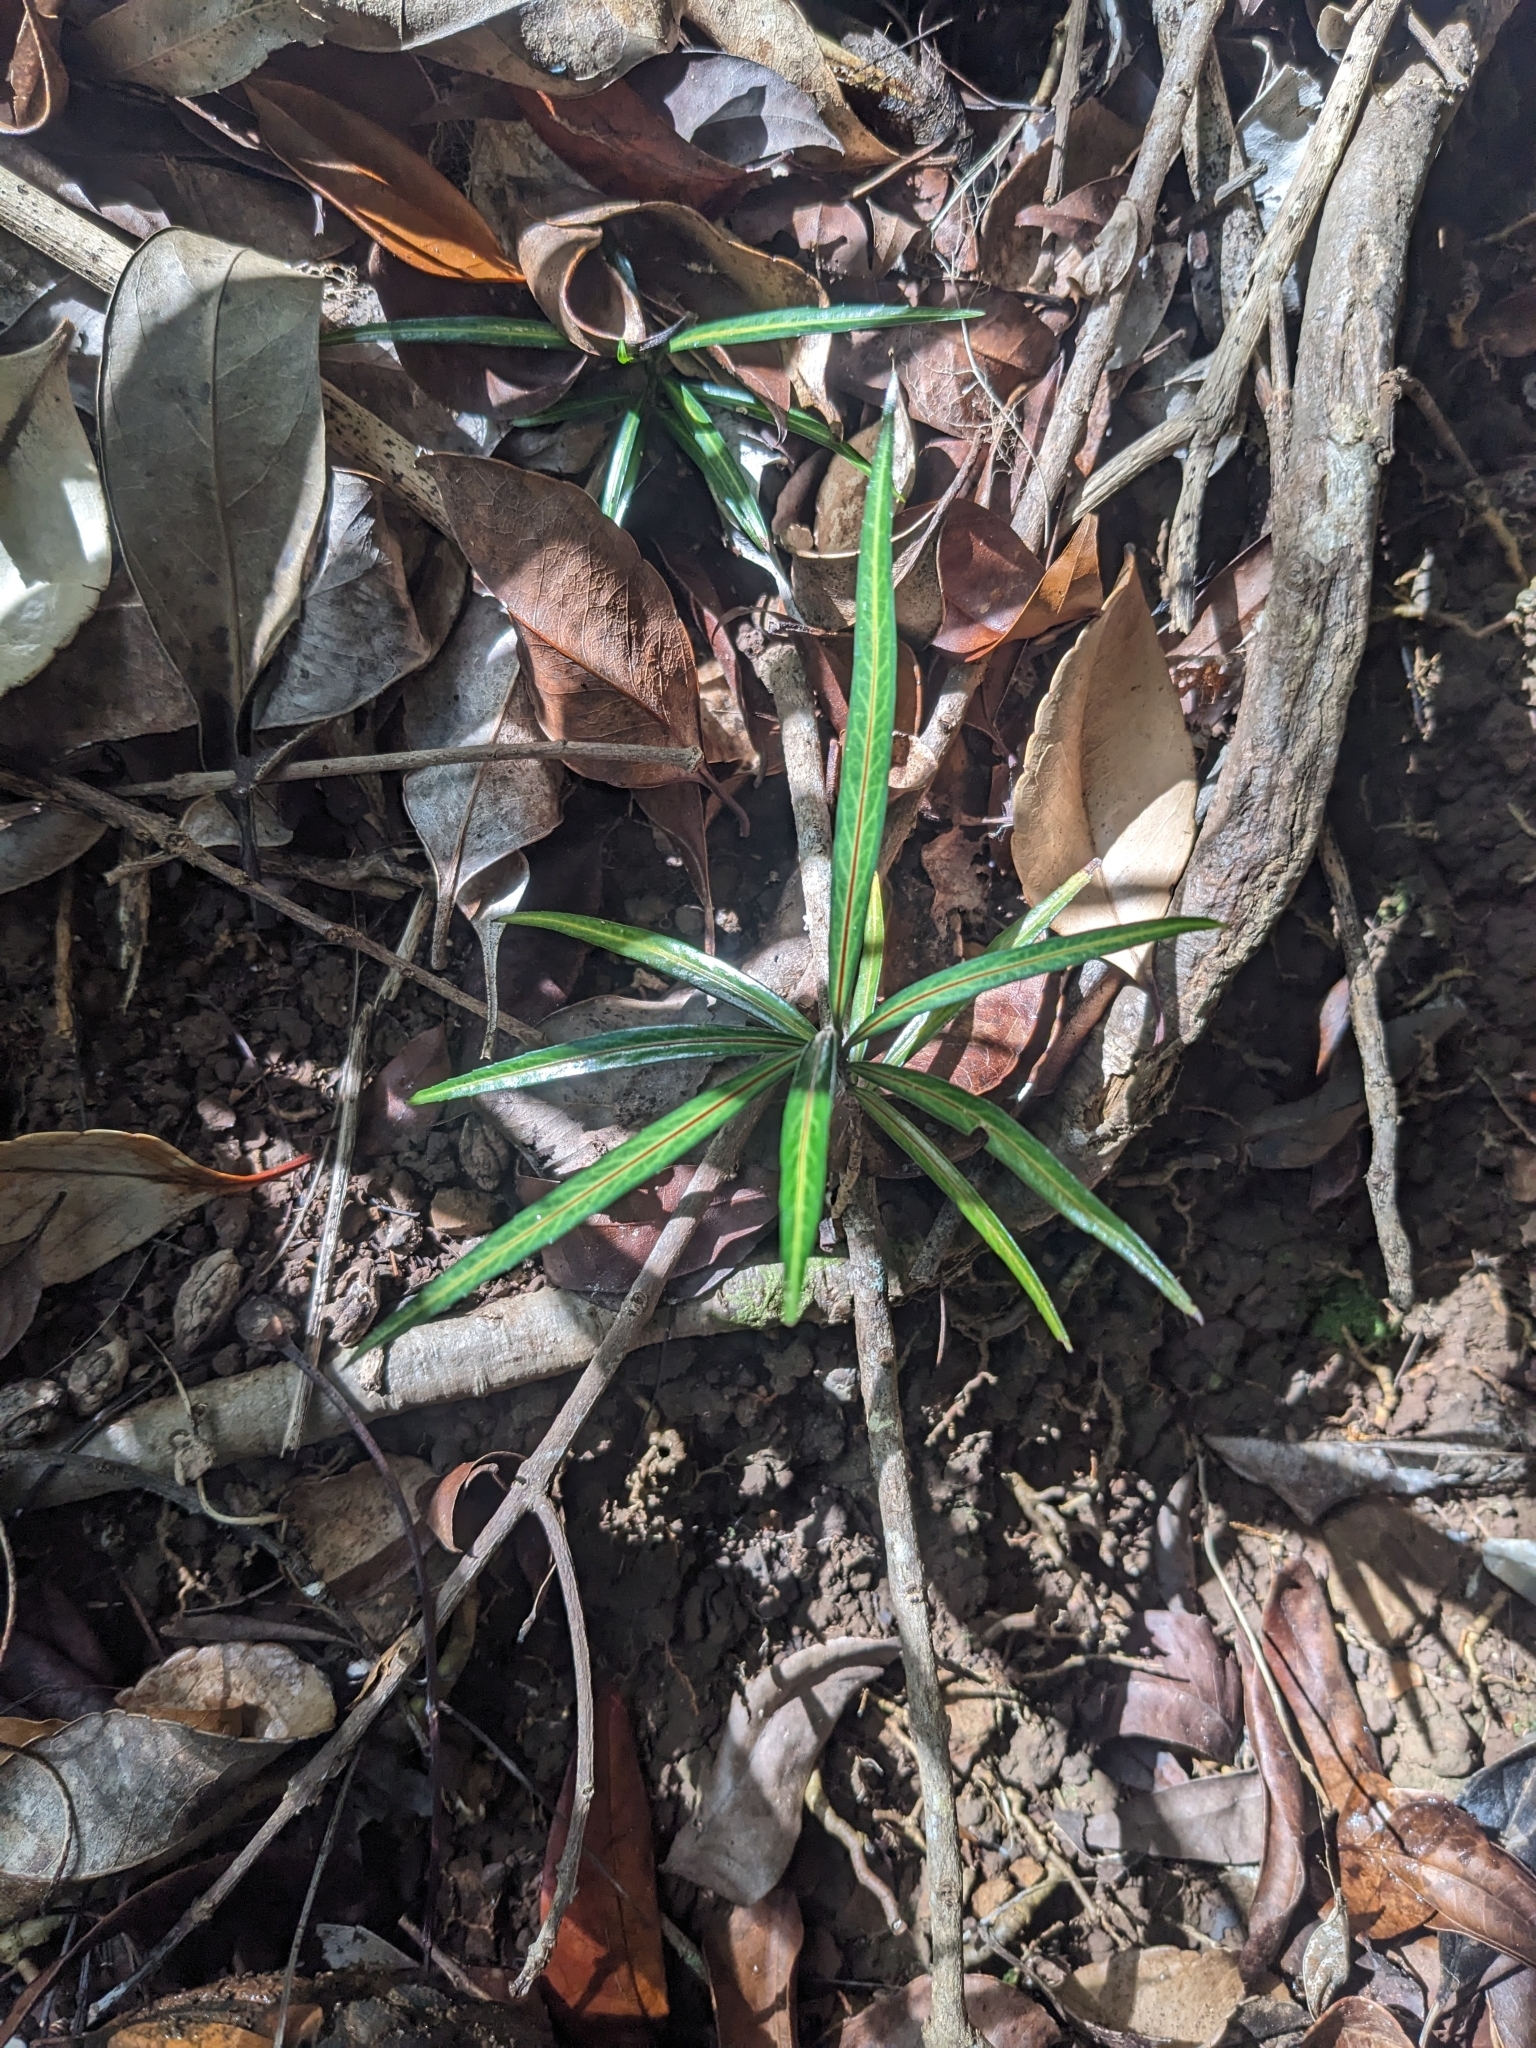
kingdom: Plantae
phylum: Tracheophyta
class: Magnoliopsida
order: Celastrales
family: Celastraceae
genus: Elaeodendron
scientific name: Elaeodendron orientale
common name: False olive
